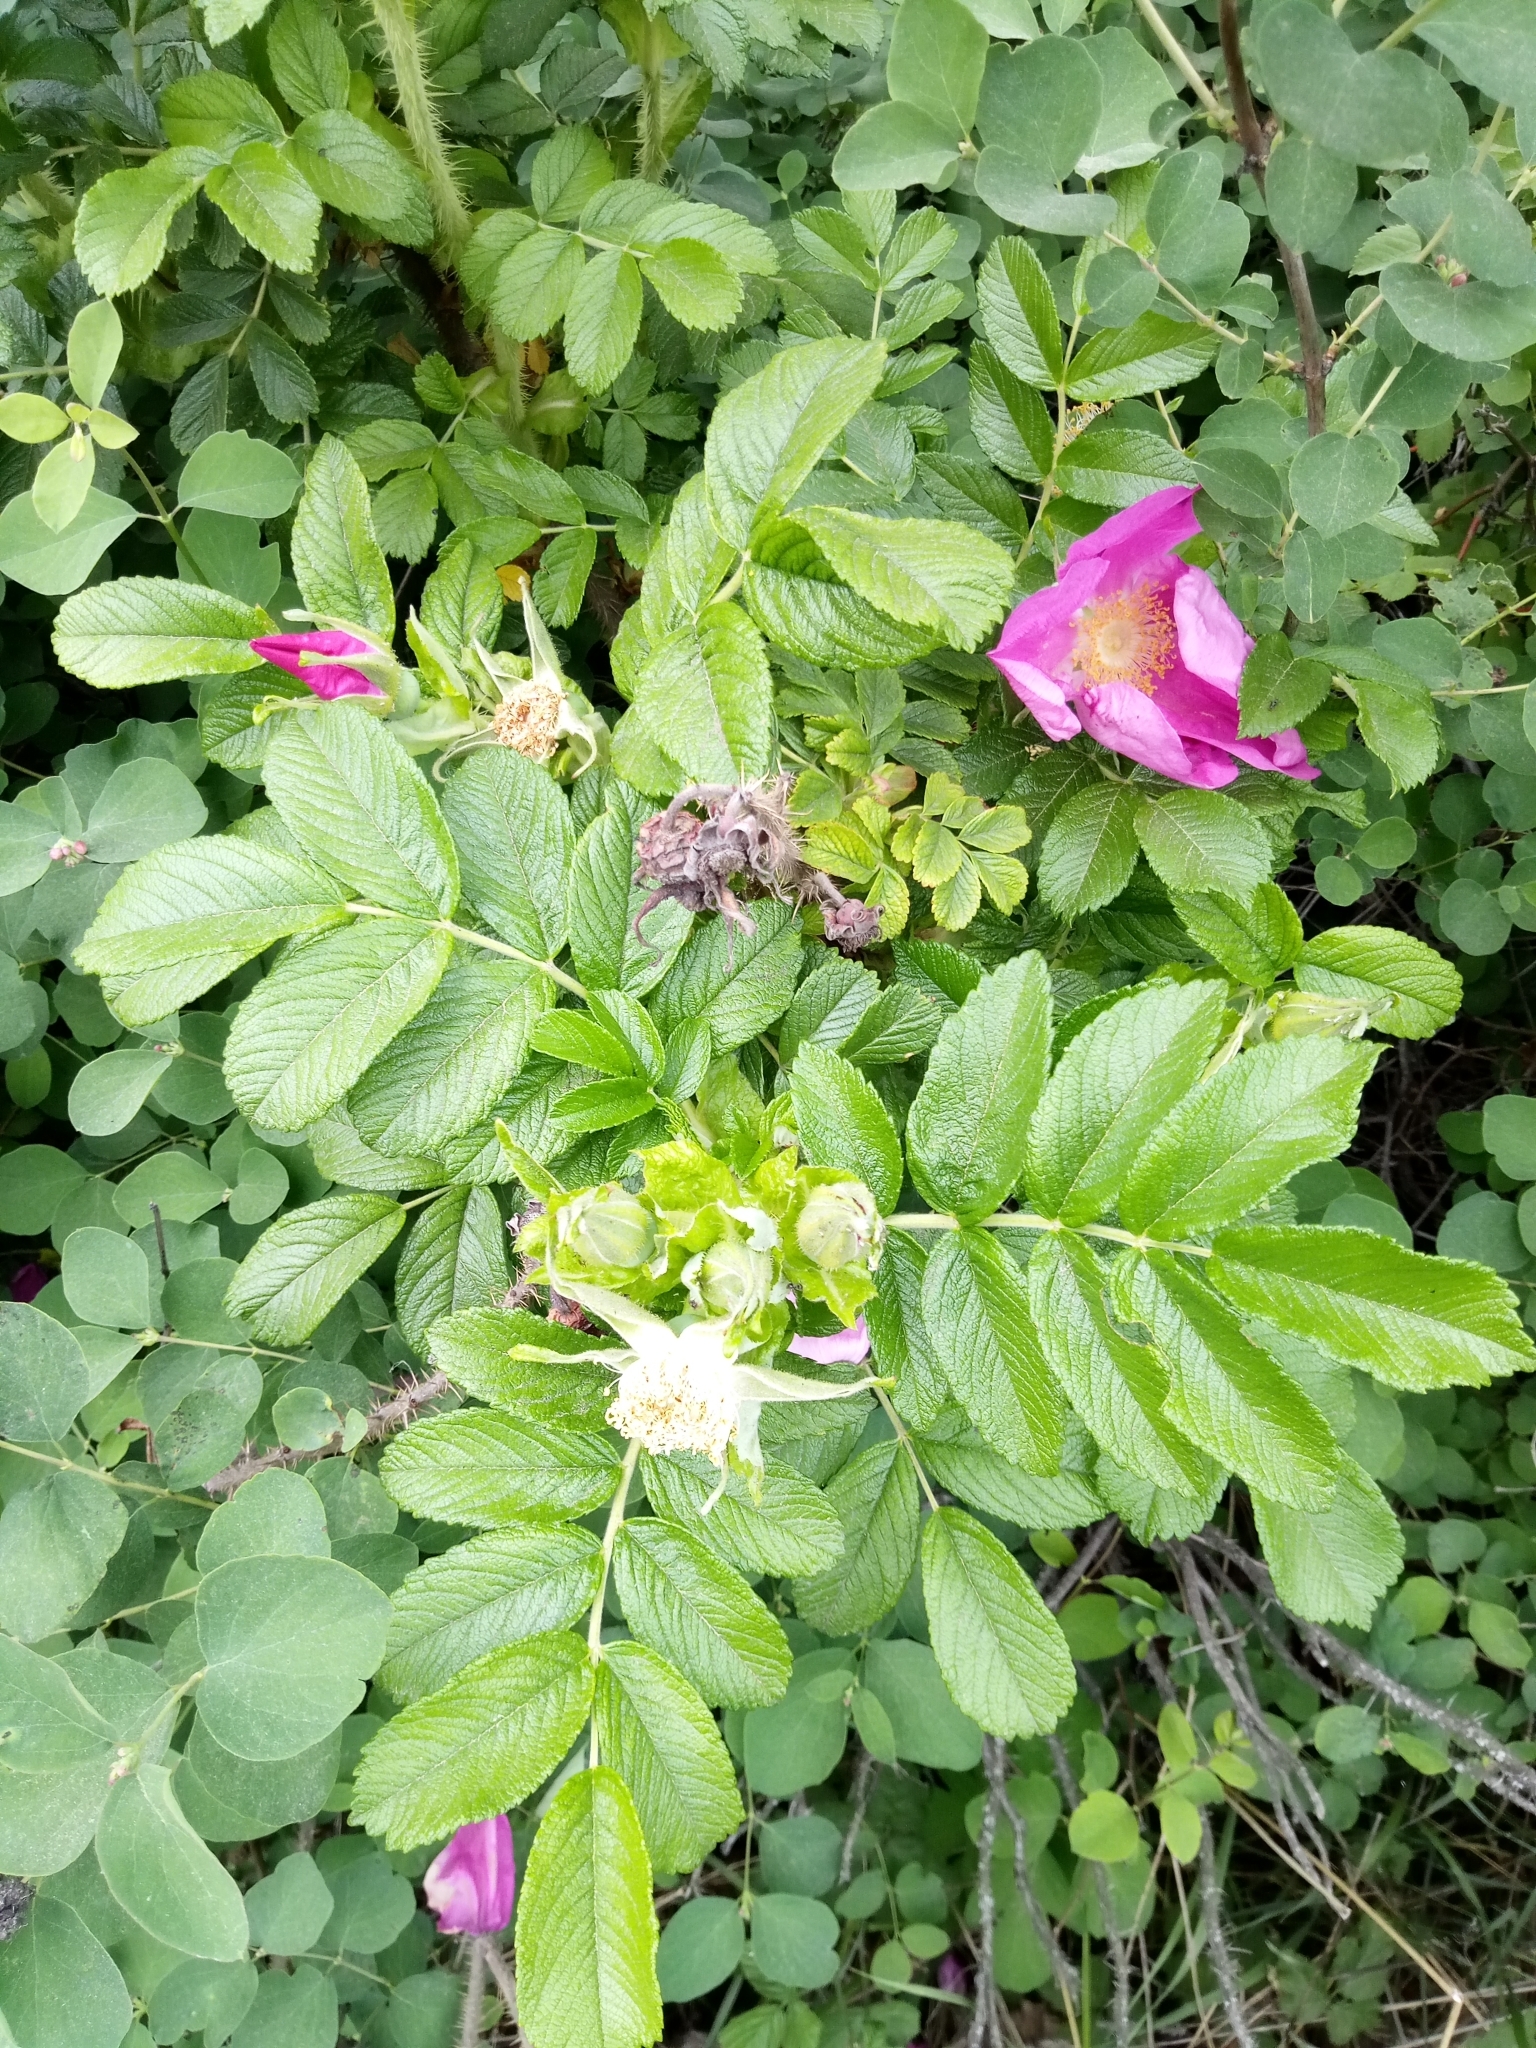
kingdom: Plantae
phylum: Tracheophyta
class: Magnoliopsida
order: Rosales
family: Rosaceae
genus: Rosa
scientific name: Rosa rugosa
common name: Japanese rose
